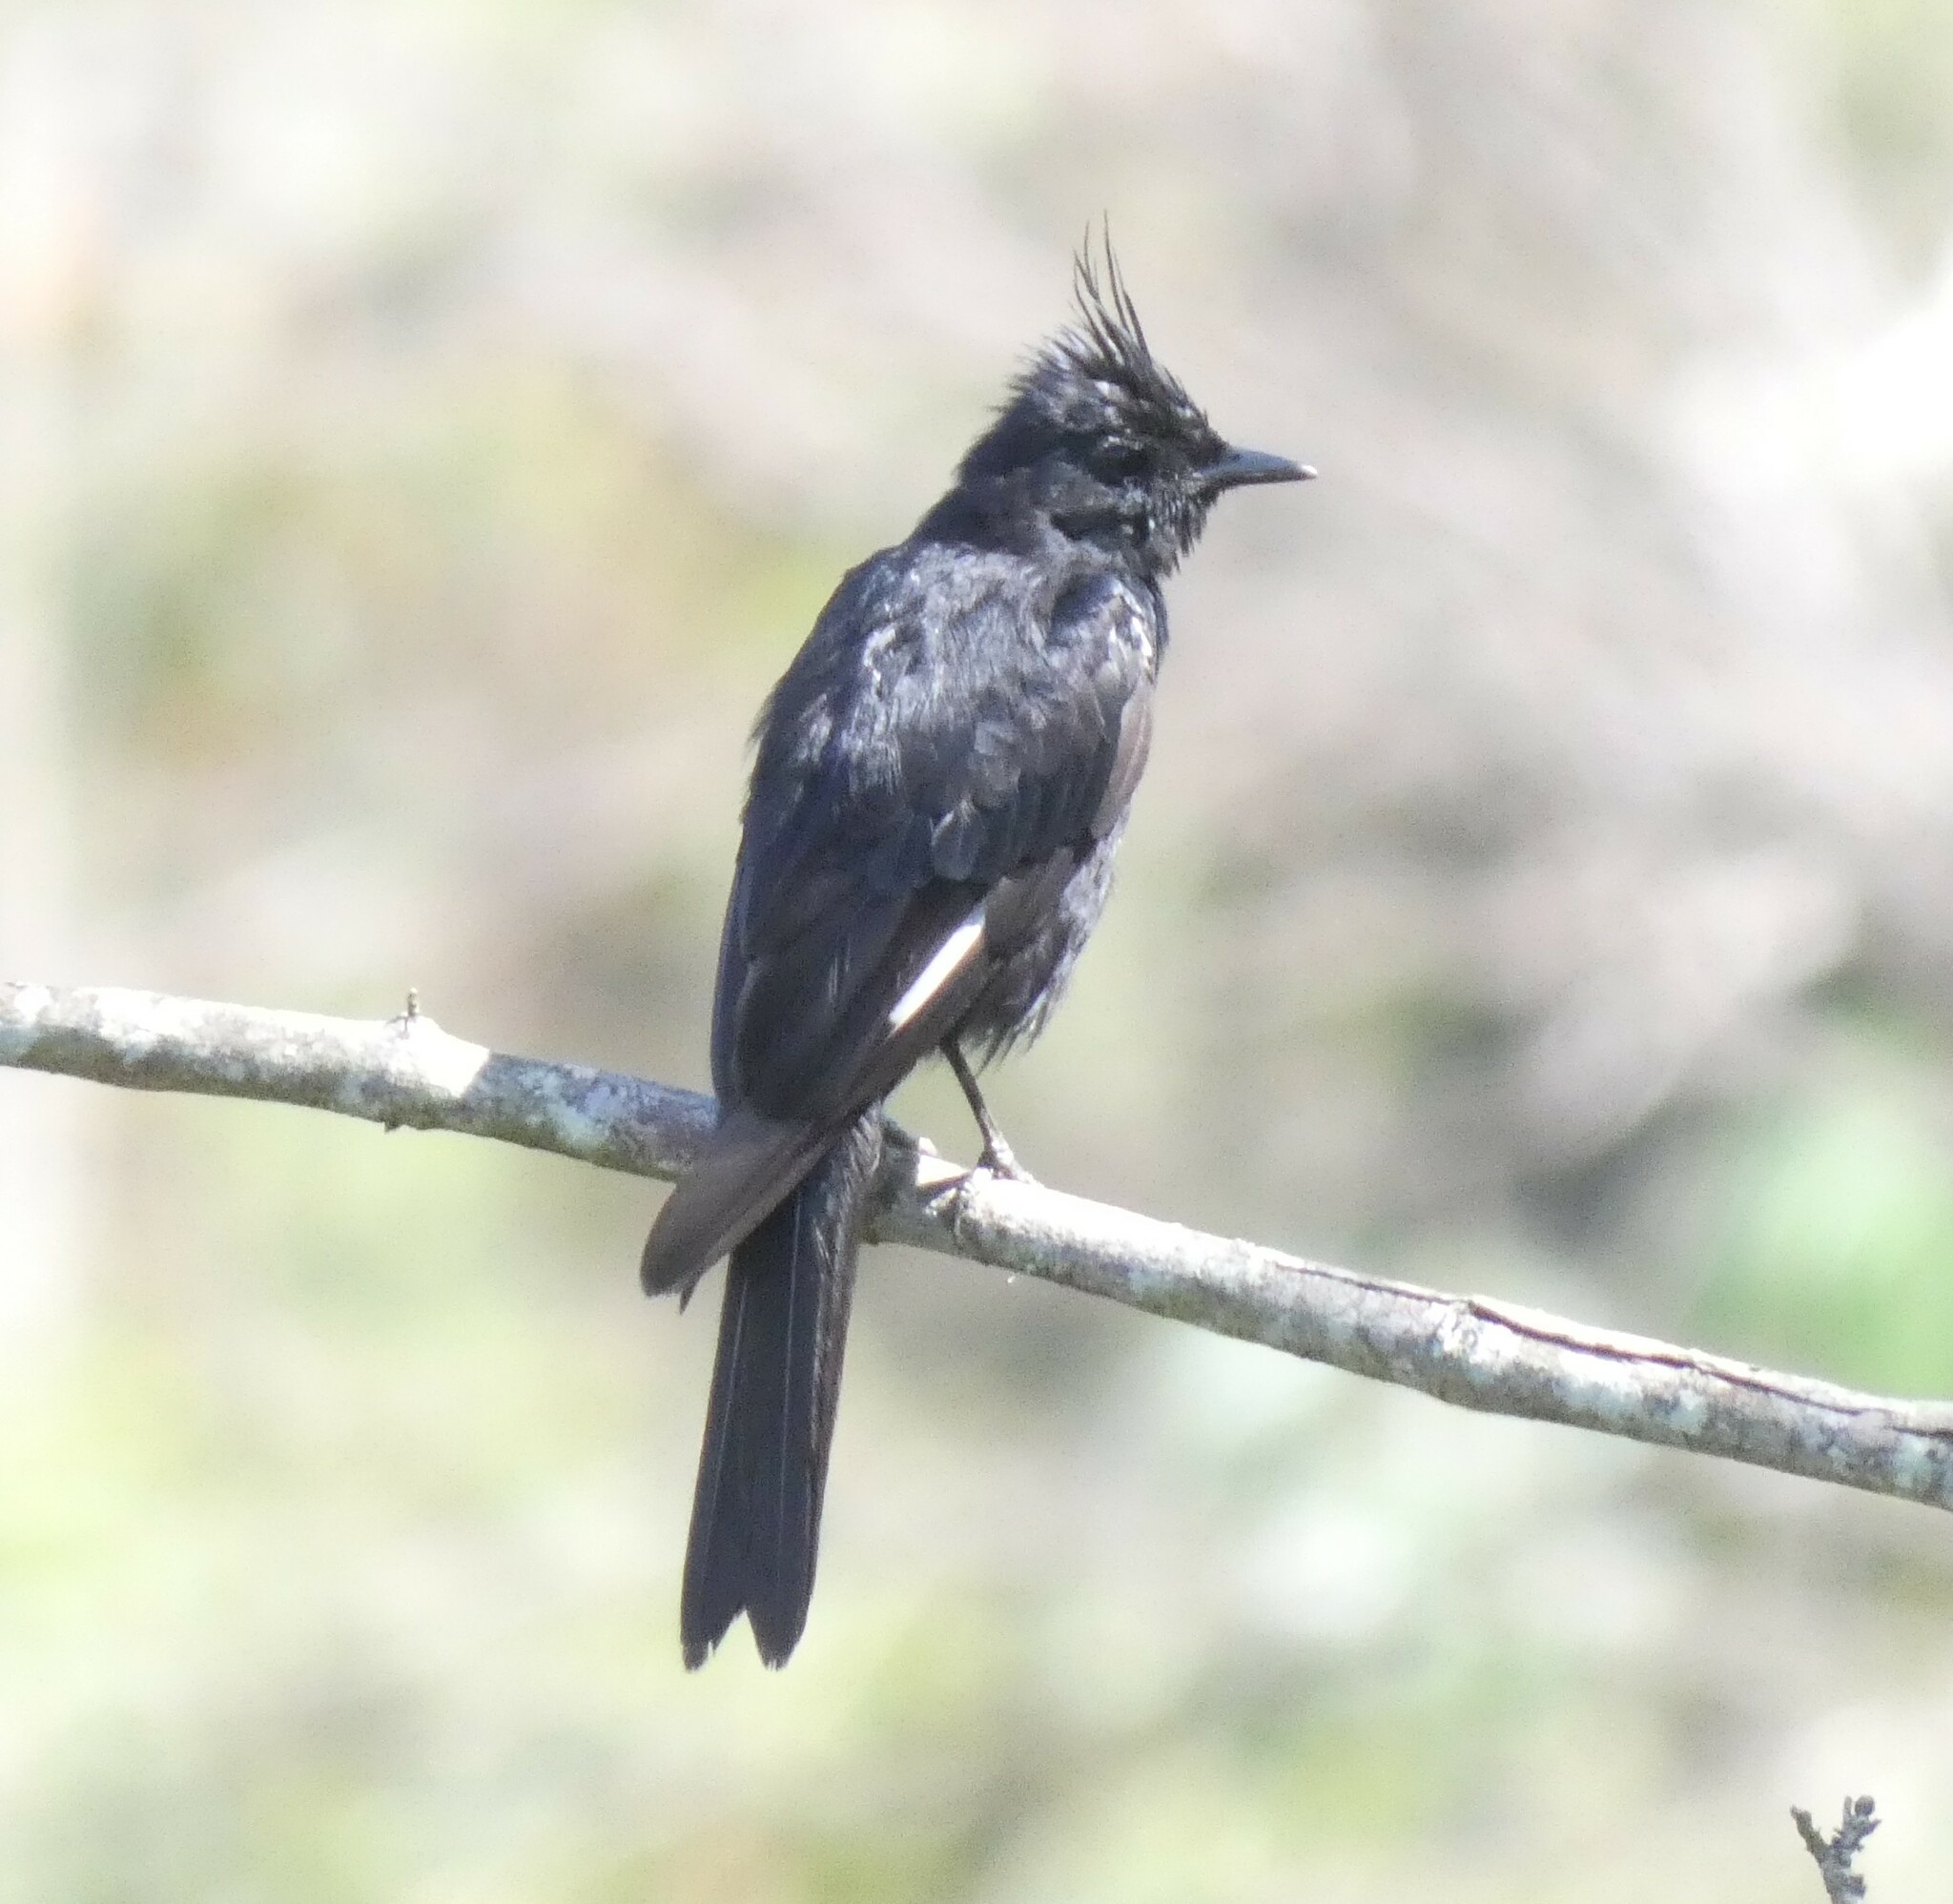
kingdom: Animalia
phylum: Chordata
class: Aves
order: Passeriformes
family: Tyrannidae
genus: Knipolegus
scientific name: Knipolegus lophotes
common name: Crested black tyrant
